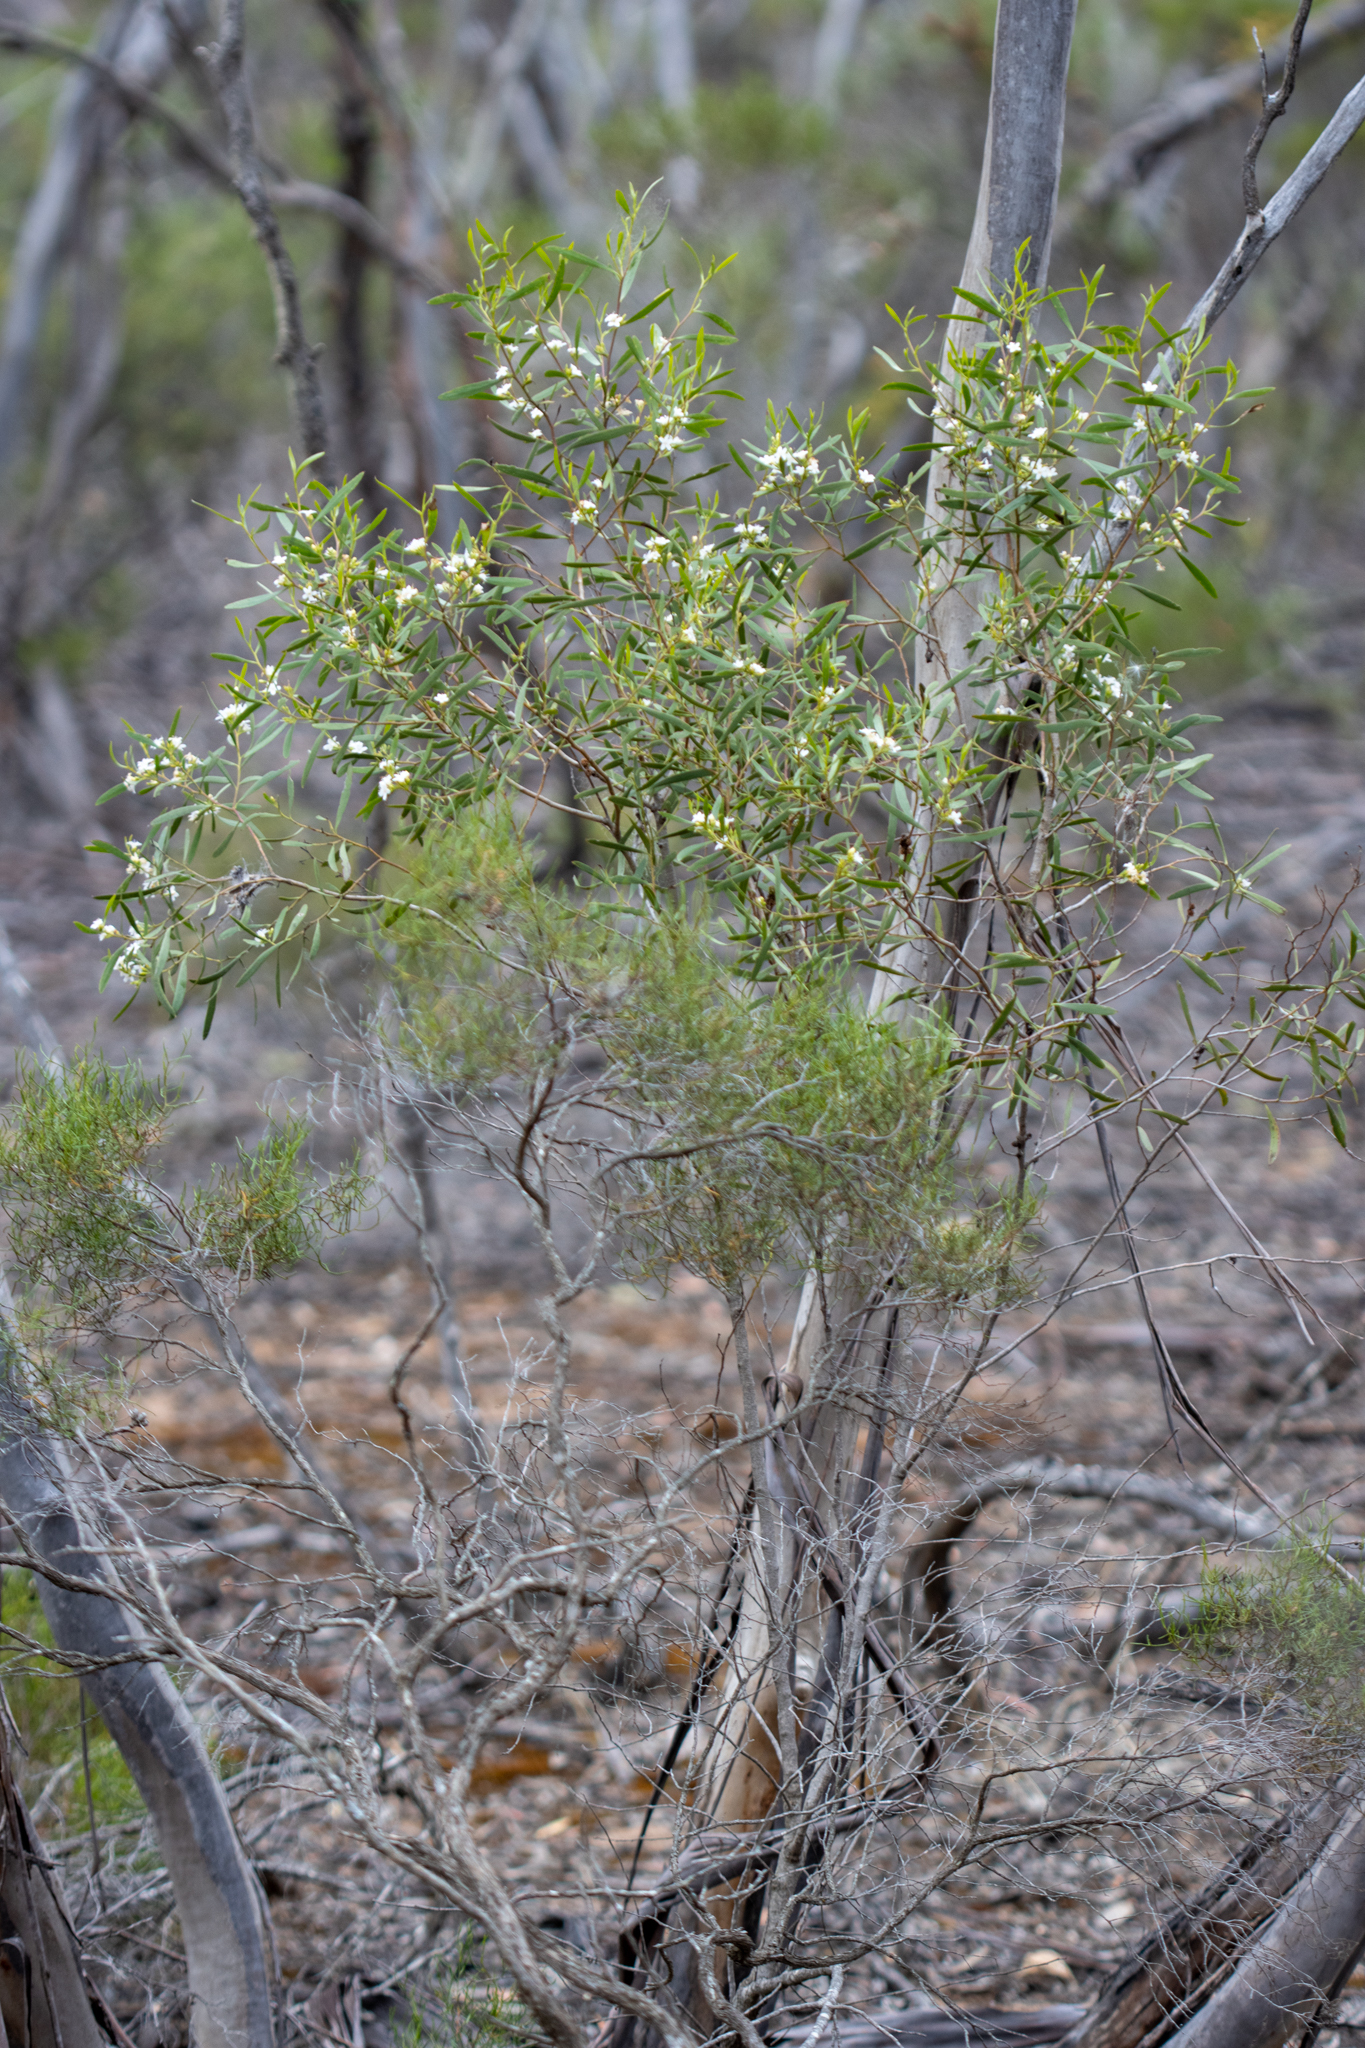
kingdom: Plantae
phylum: Tracheophyta
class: Magnoliopsida
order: Lamiales
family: Scrophulariaceae
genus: Myoporum
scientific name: Myoporum platycarpum
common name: Sugartree
